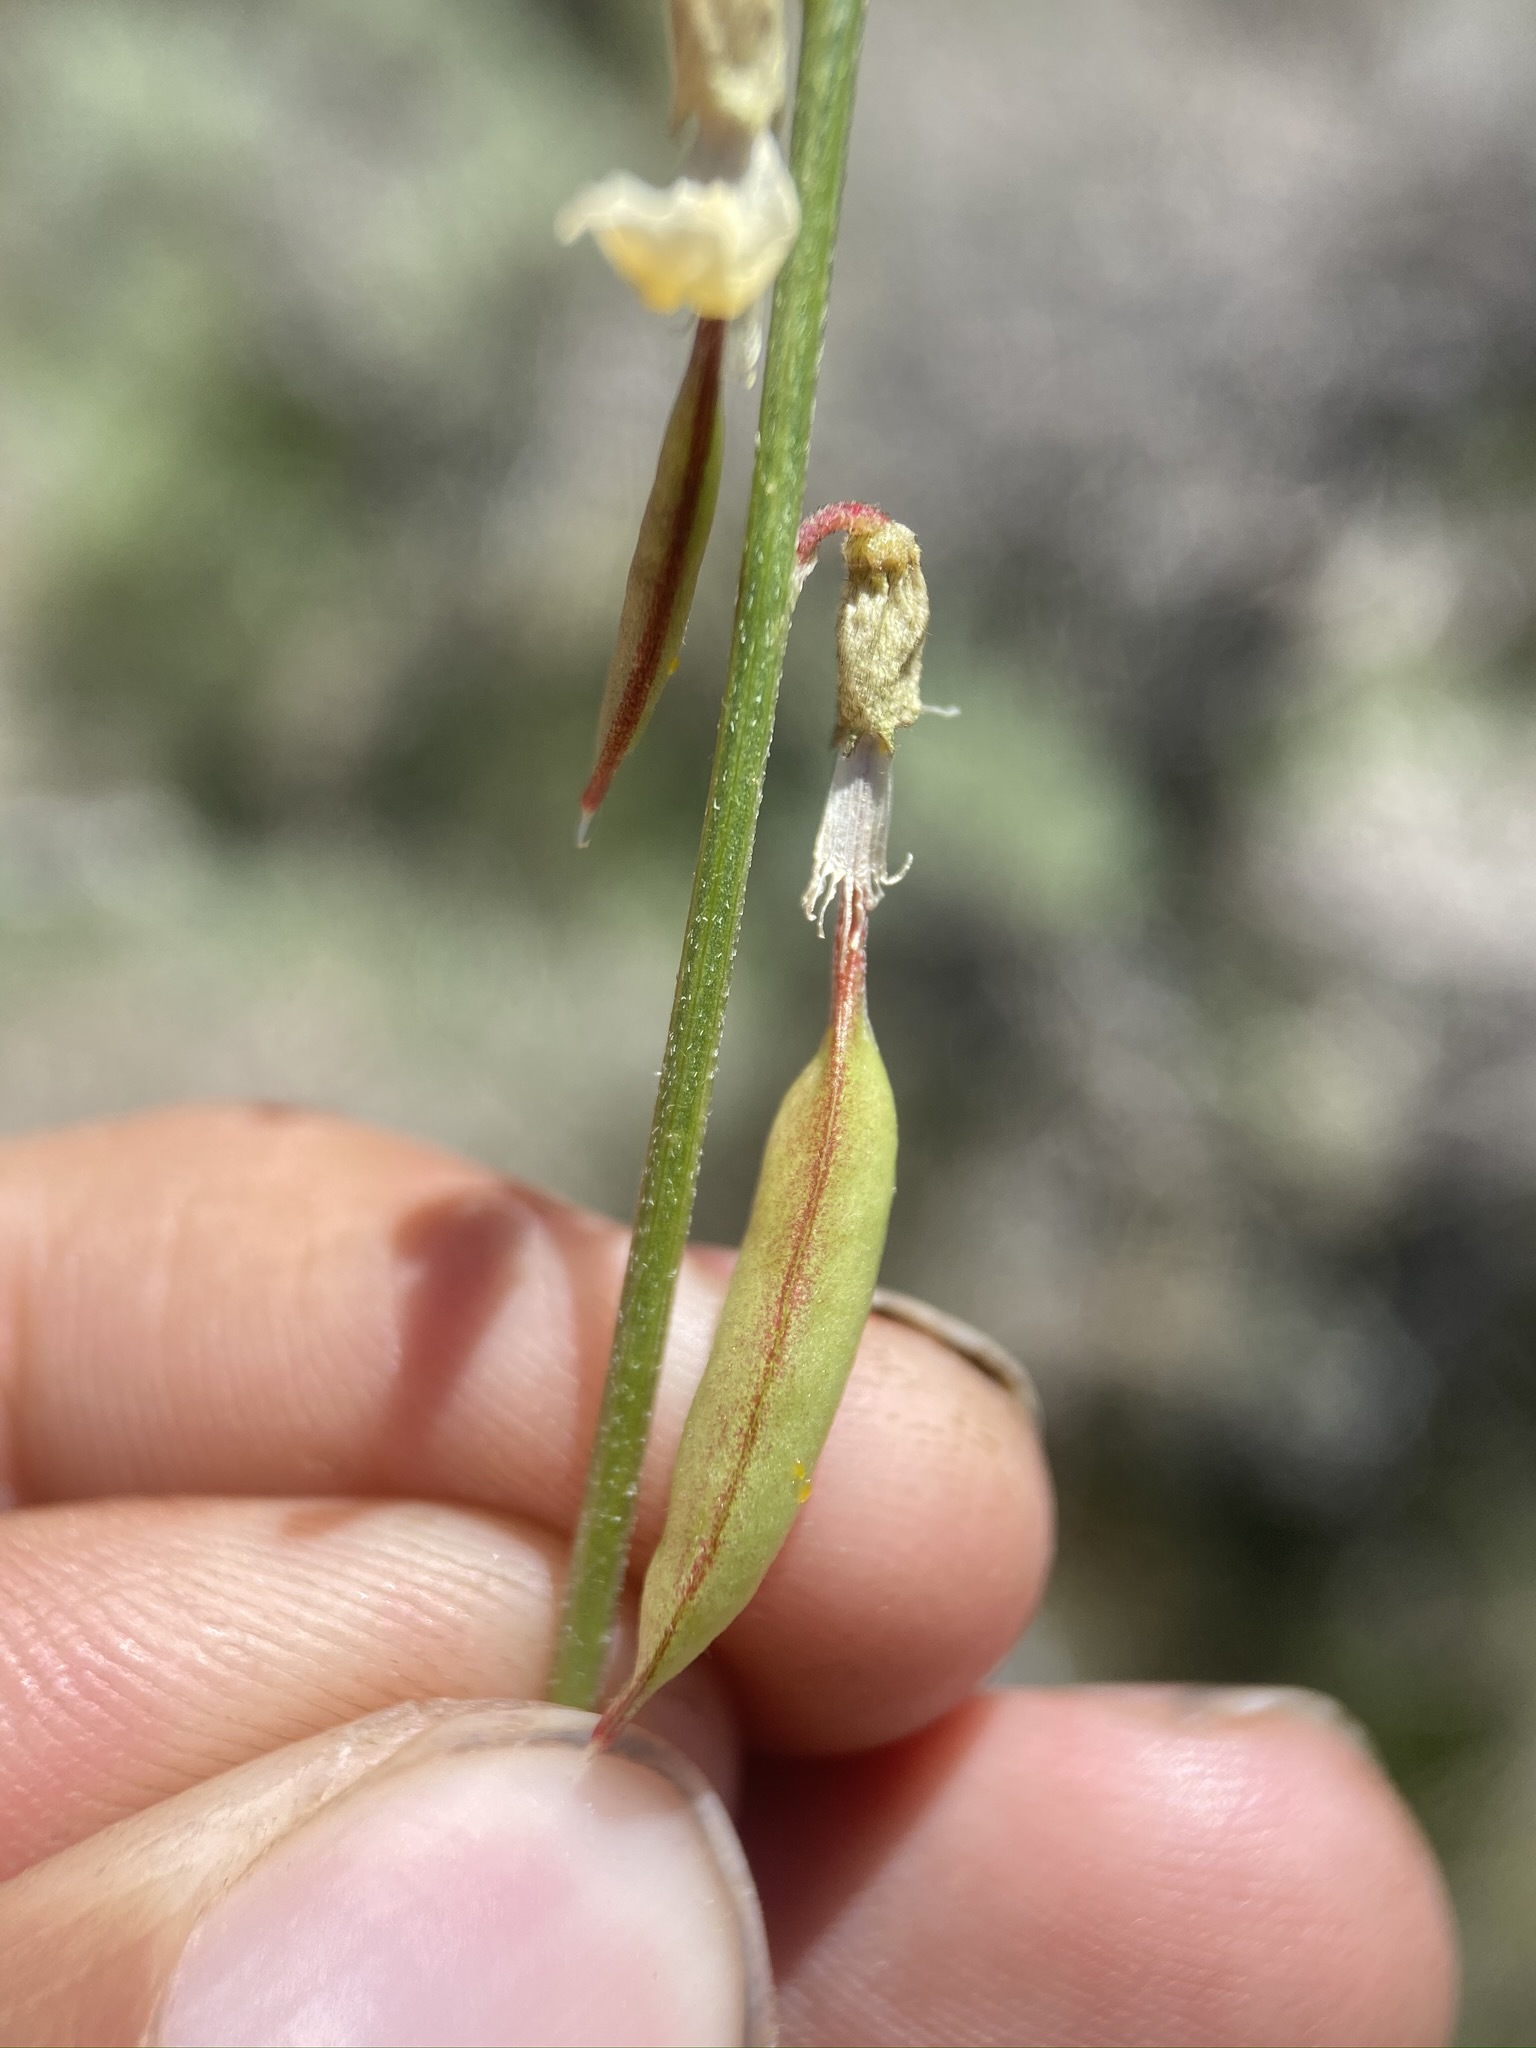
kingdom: Plantae
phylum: Tracheophyta
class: Magnoliopsida
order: Fabales
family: Fabaceae
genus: Astragalus
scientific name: Astragalus filipes
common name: Basalt milk-vetch
